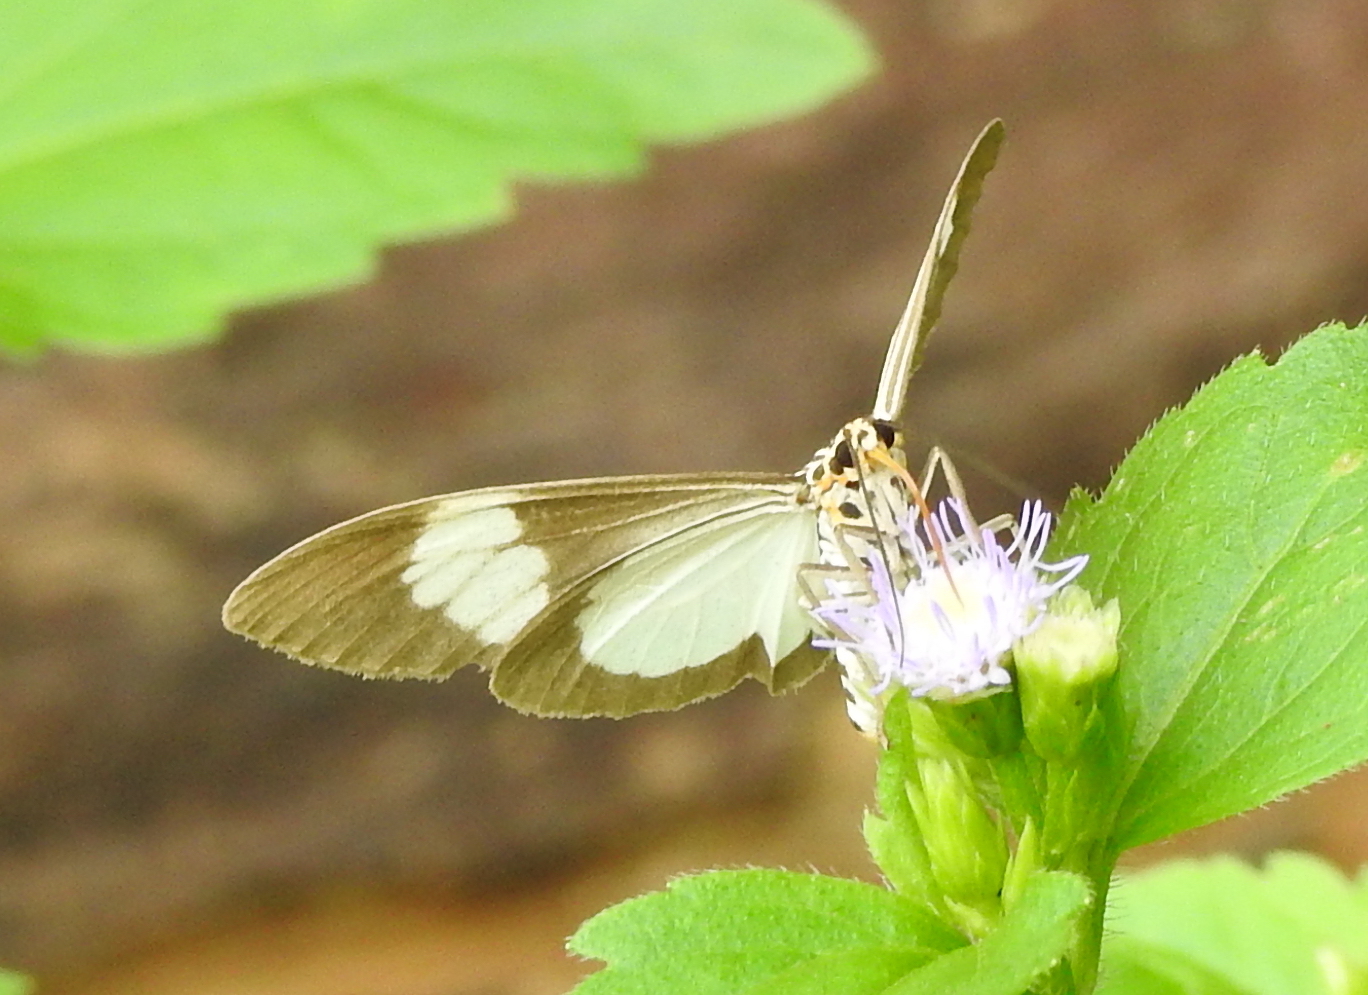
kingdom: Animalia
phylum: Arthropoda
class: Insecta
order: Lepidoptera
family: Erebidae
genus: Nyctemera
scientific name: Nyctemera baulus
